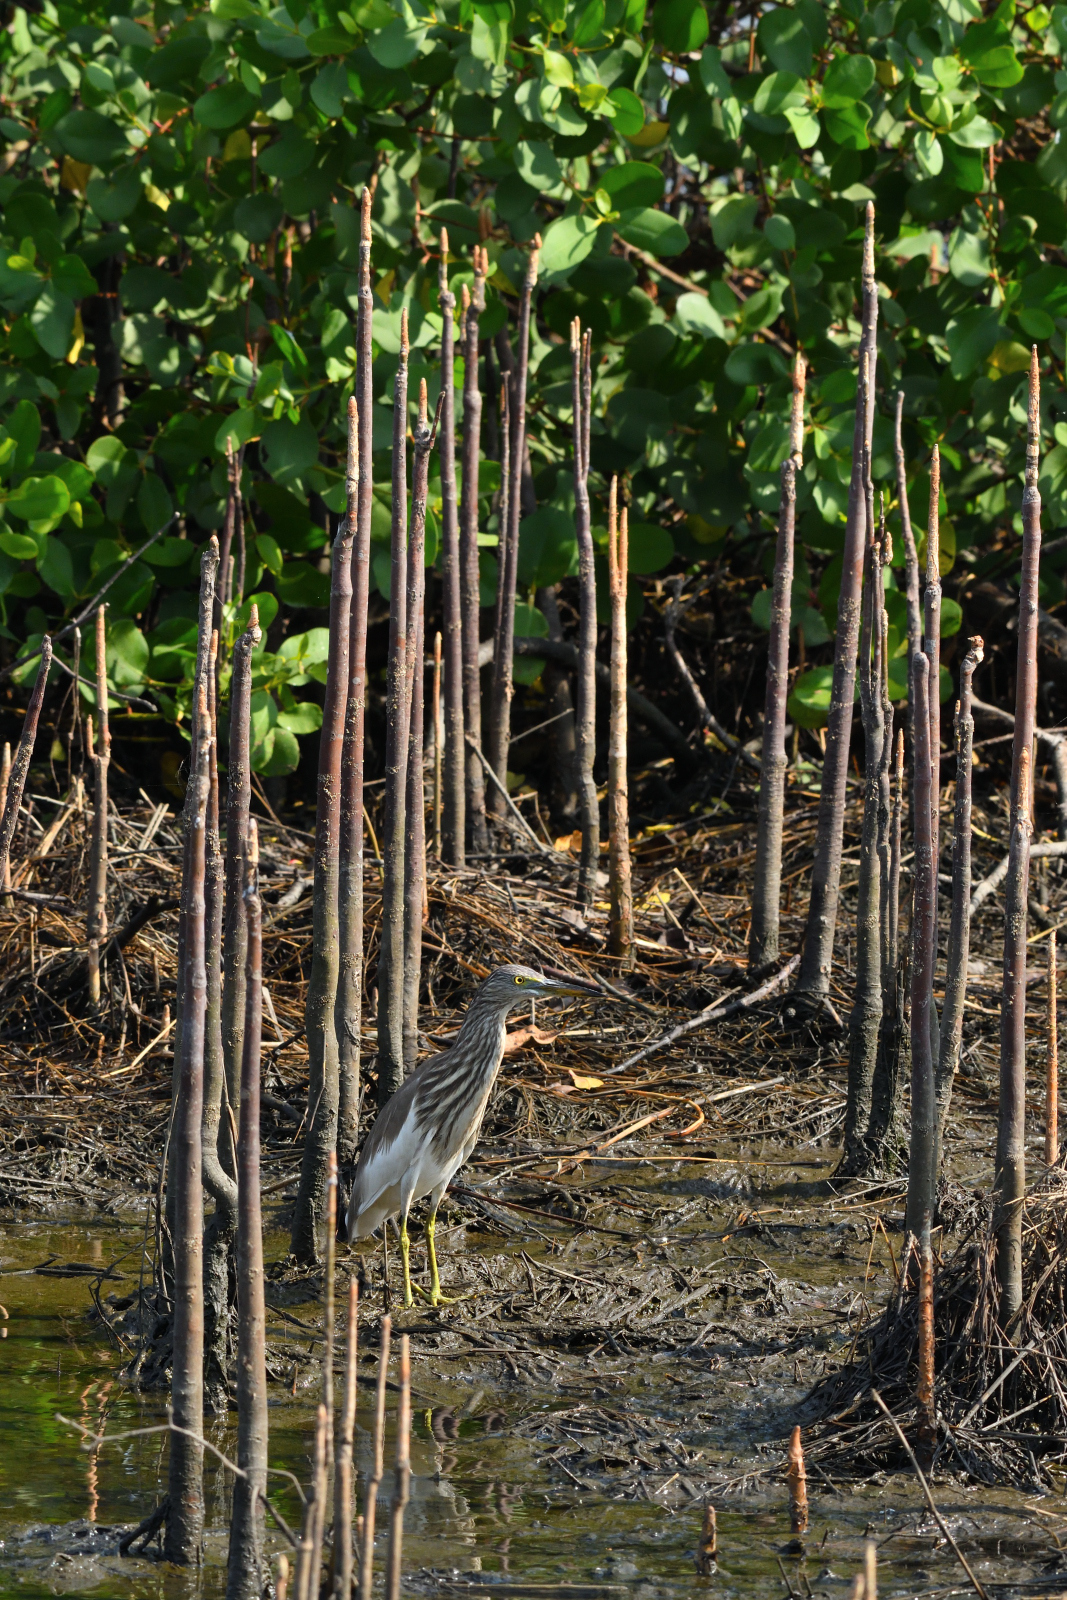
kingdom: Animalia
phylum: Chordata
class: Aves
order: Pelecaniformes
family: Ardeidae
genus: Ardeola
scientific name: Ardeola grayii
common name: Indian pond heron
